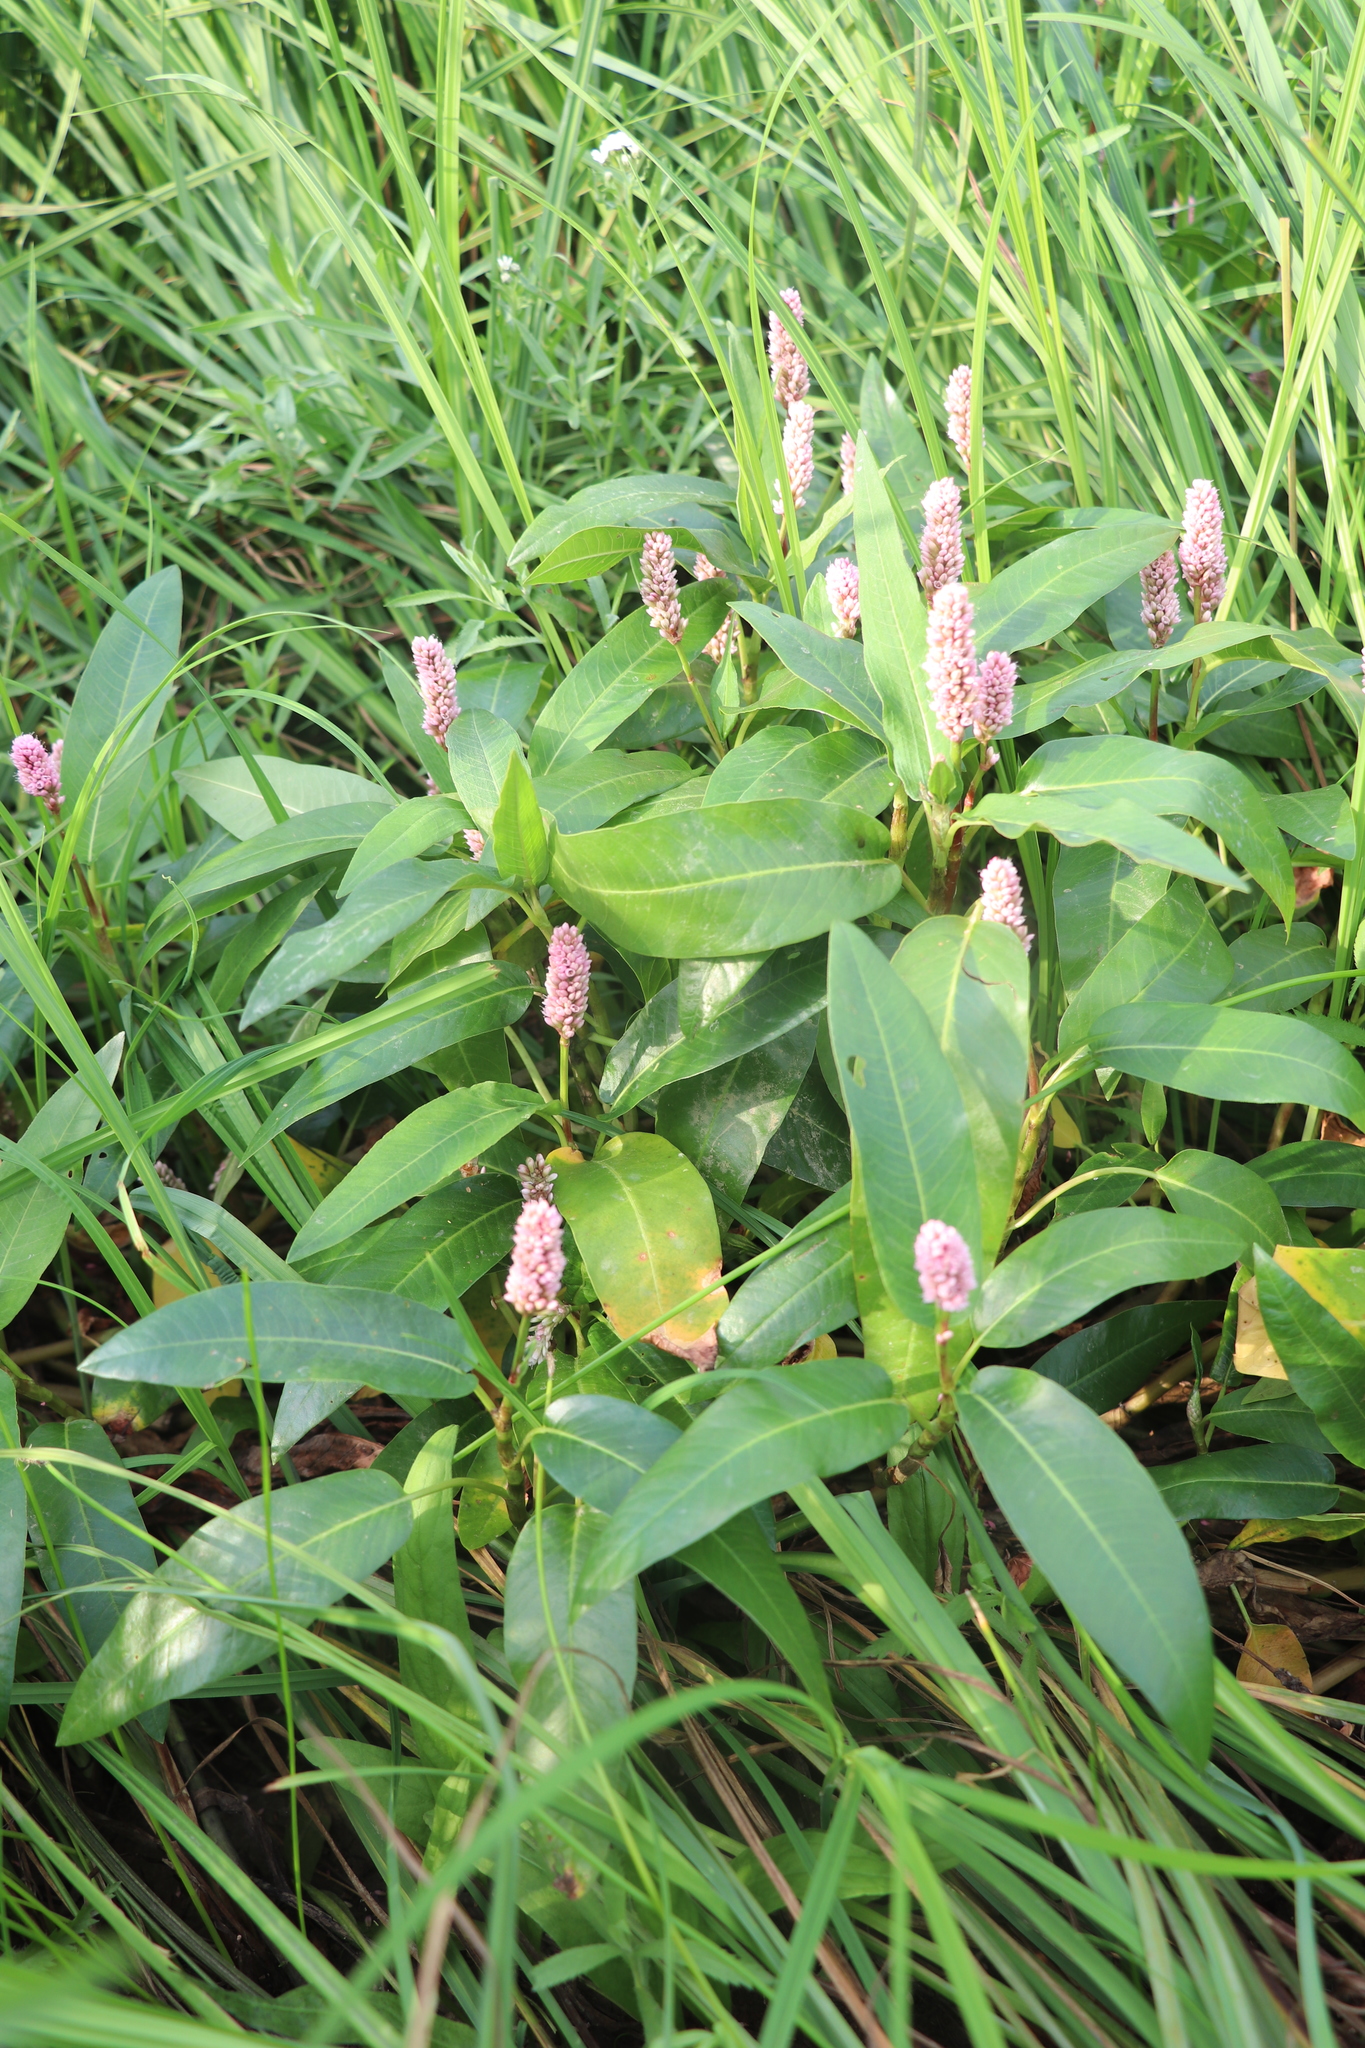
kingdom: Plantae
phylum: Tracheophyta
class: Magnoliopsida
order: Caryophyllales
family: Polygonaceae
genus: Persicaria
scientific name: Persicaria amphibia
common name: Amphibious bistort
